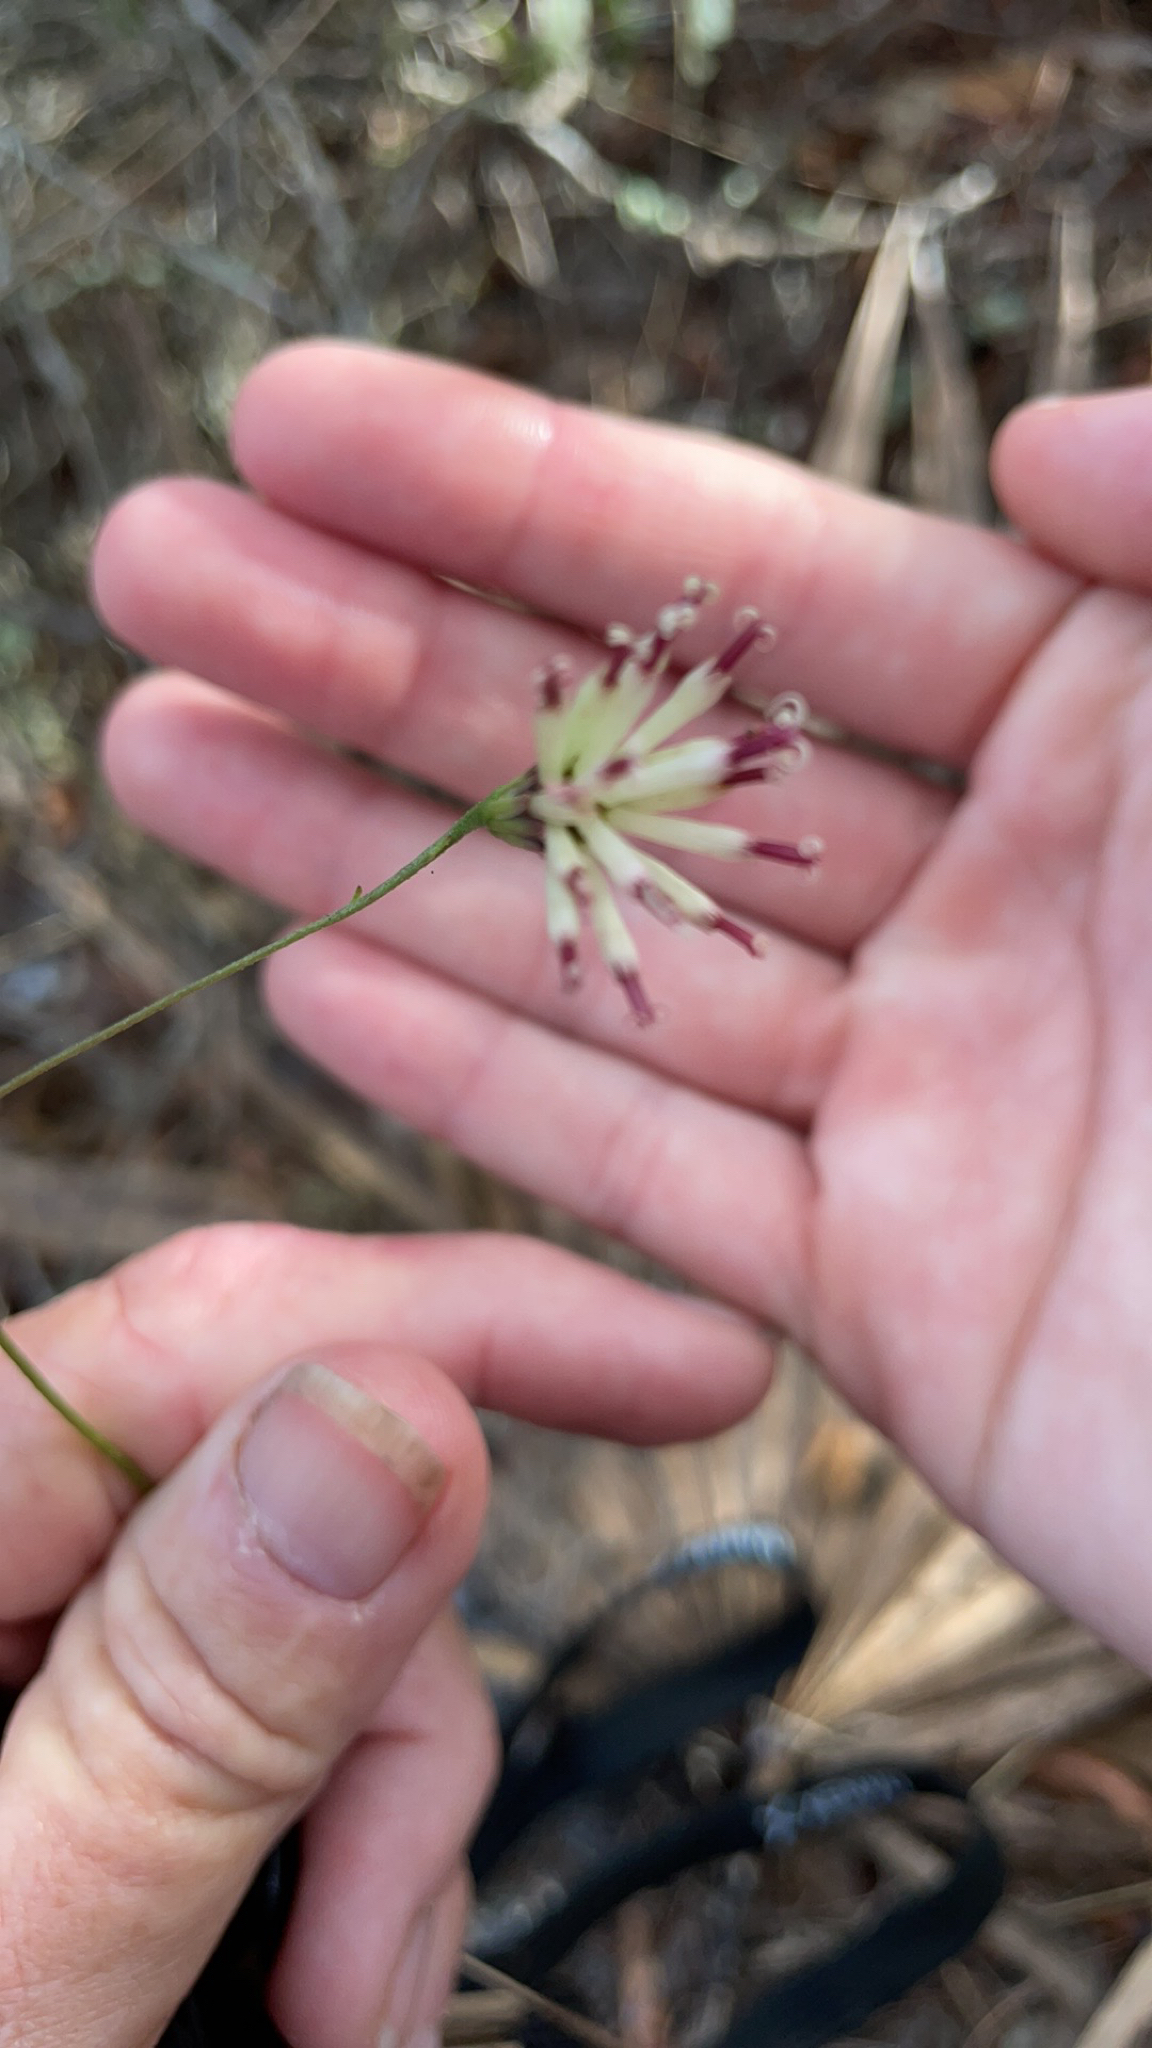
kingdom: Plantae
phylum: Tracheophyta
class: Magnoliopsida
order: Asterales
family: Asteraceae
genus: Palafoxia
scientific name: Palafoxia feayi
